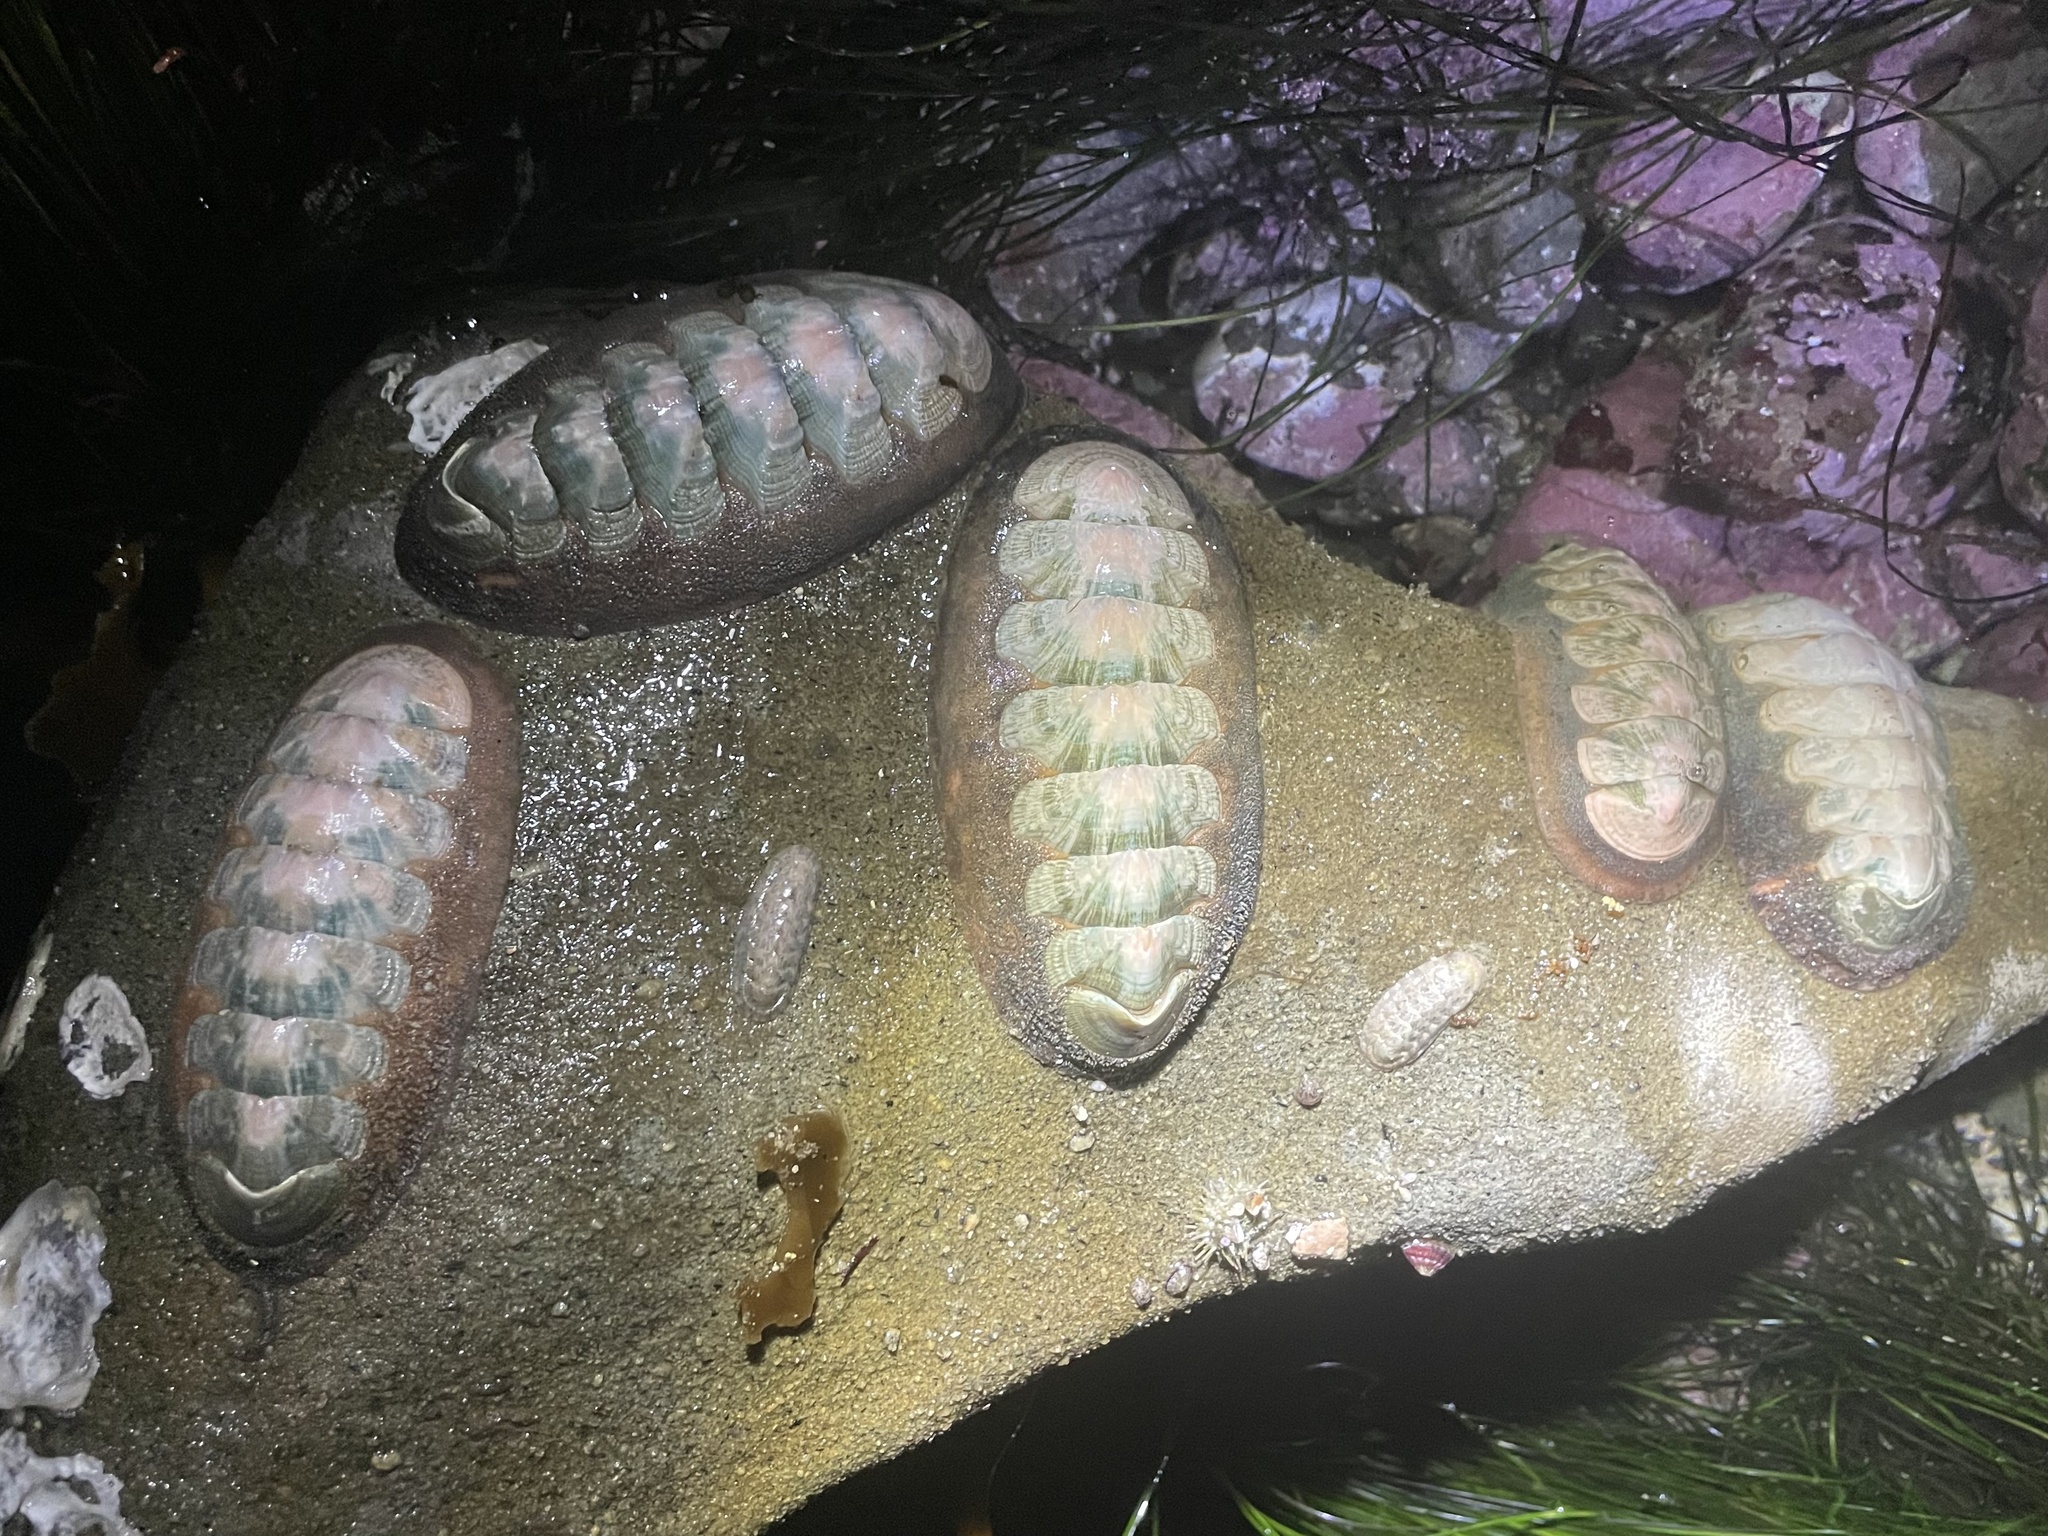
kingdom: Animalia
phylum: Mollusca
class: Polyplacophora
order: Chitonida
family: Ischnochitonidae
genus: Stenoplax
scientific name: Stenoplax conspicua
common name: Conspicuous chiton
